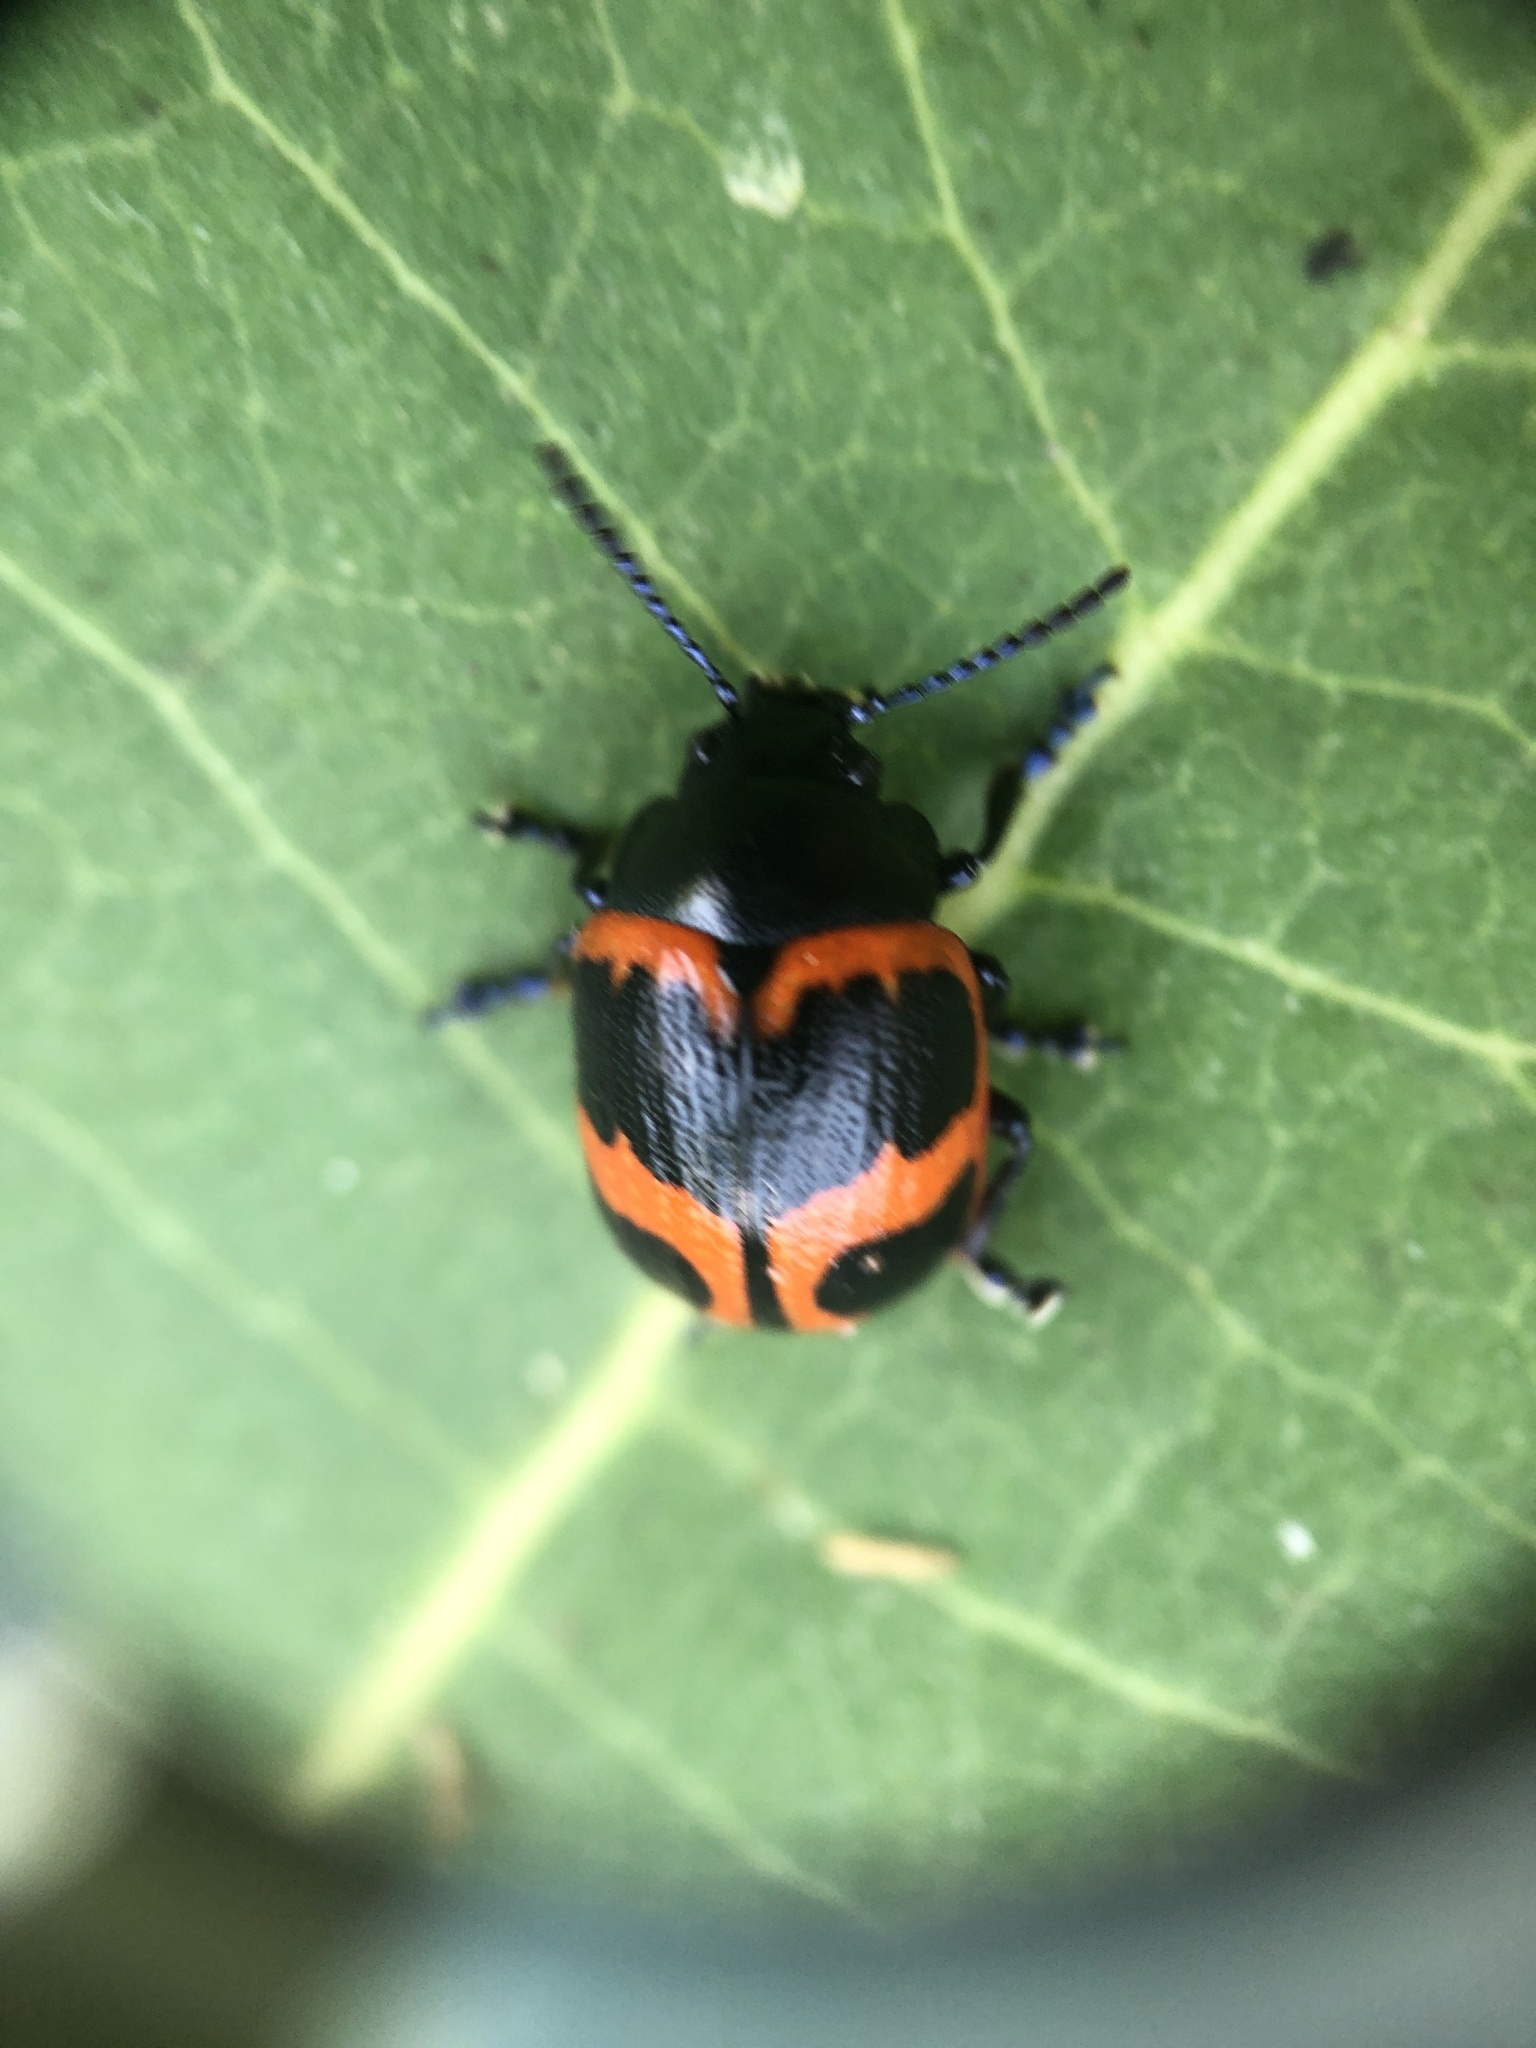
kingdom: Animalia
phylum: Arthropoda
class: Insecta
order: Coleoptera
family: Chrysomelidae
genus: Labidomera
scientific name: Labidomera clivicollis
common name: Swamp milkweed leaf beetle
